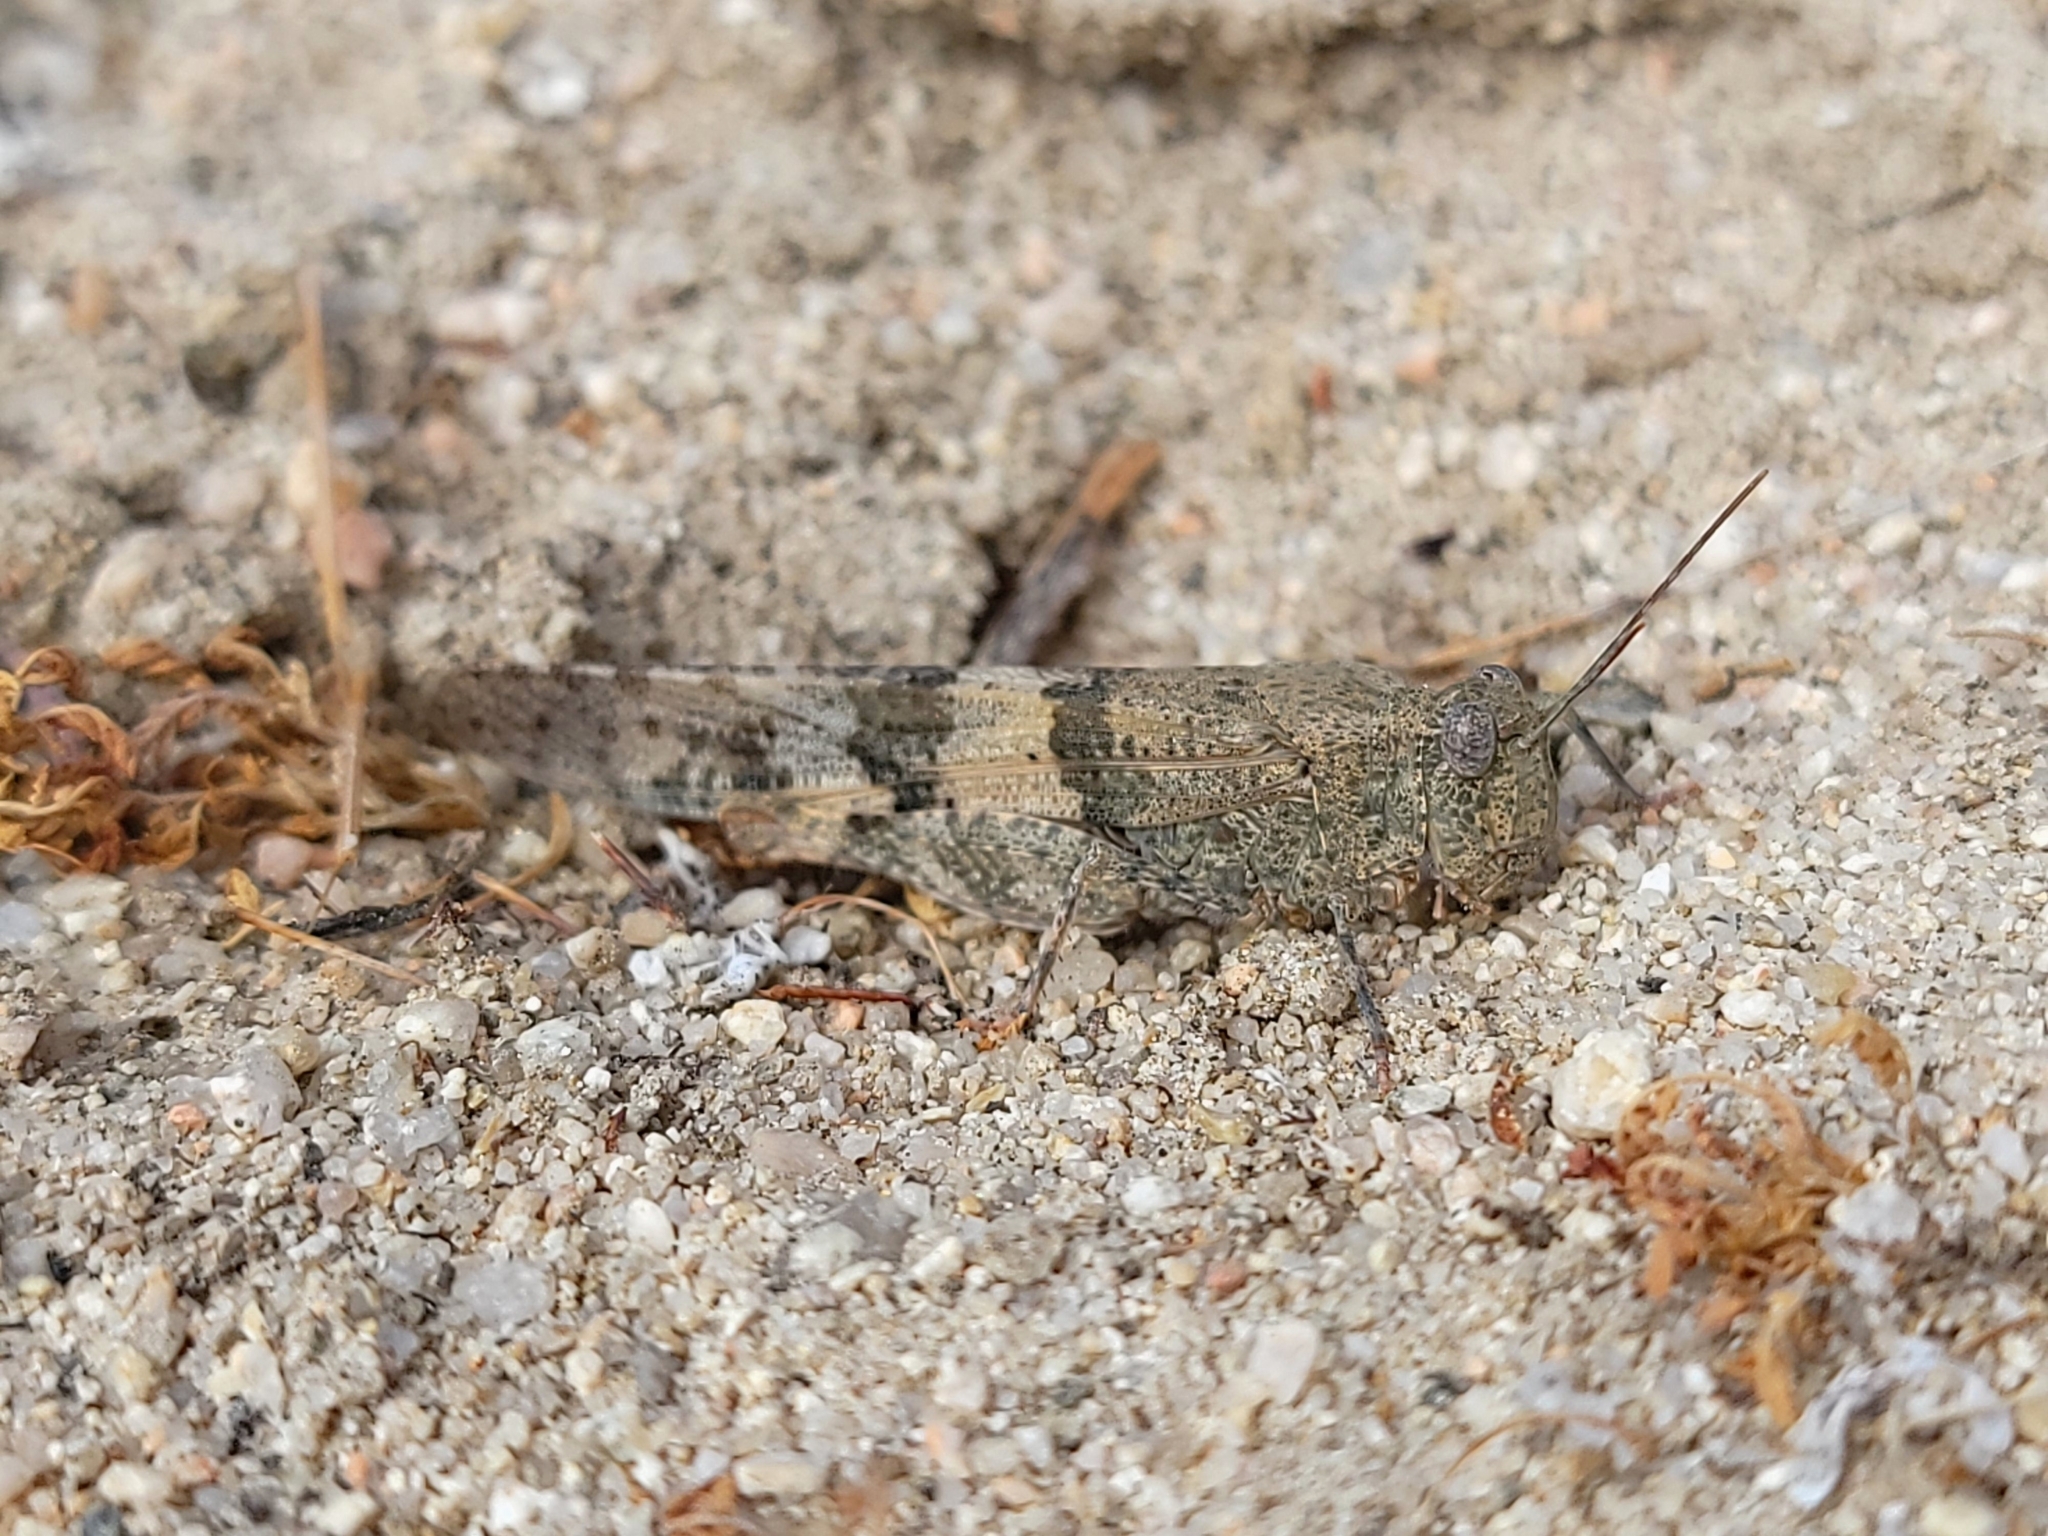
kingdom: Animalia
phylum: Arthropoda
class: Insecta
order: Orthoptera
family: Acrididae
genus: Trimerotropis
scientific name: Trimerotropis pallidipennis
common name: Pallid-winged grasshopper
